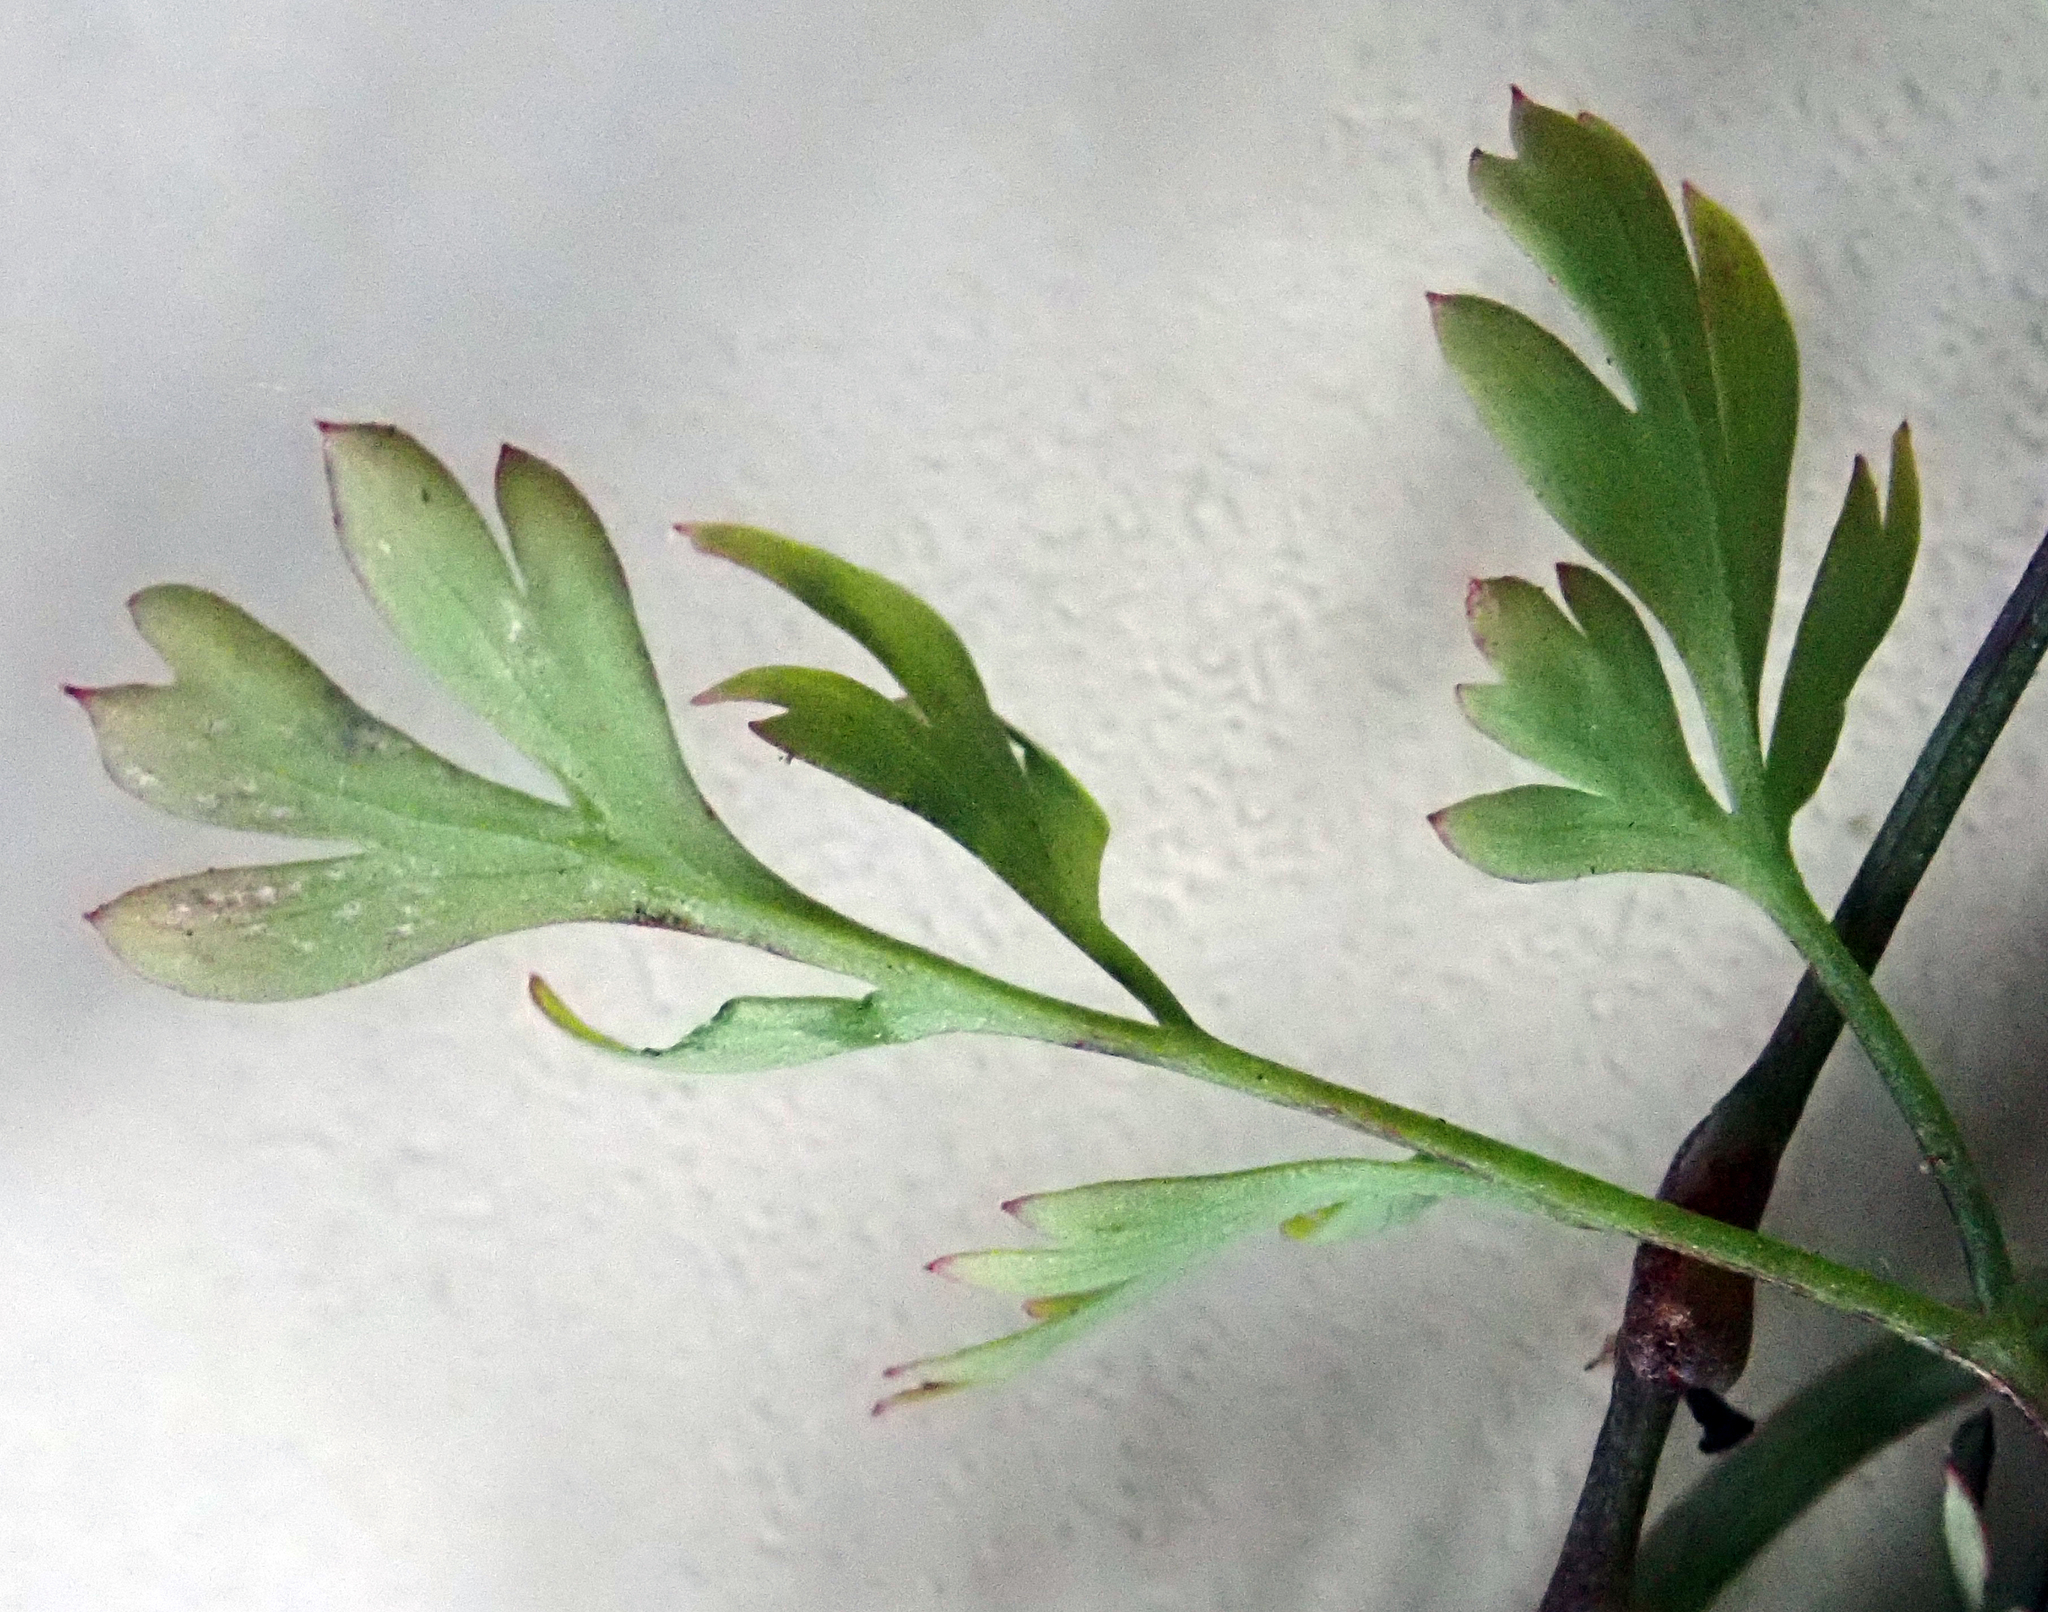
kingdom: Plantae
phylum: Tracheophyta
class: Magnoliopsida
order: Ranunculales
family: Papaveraceae
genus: Fumaria
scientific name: Fumaria muralis
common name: Common ramping-fumitory
